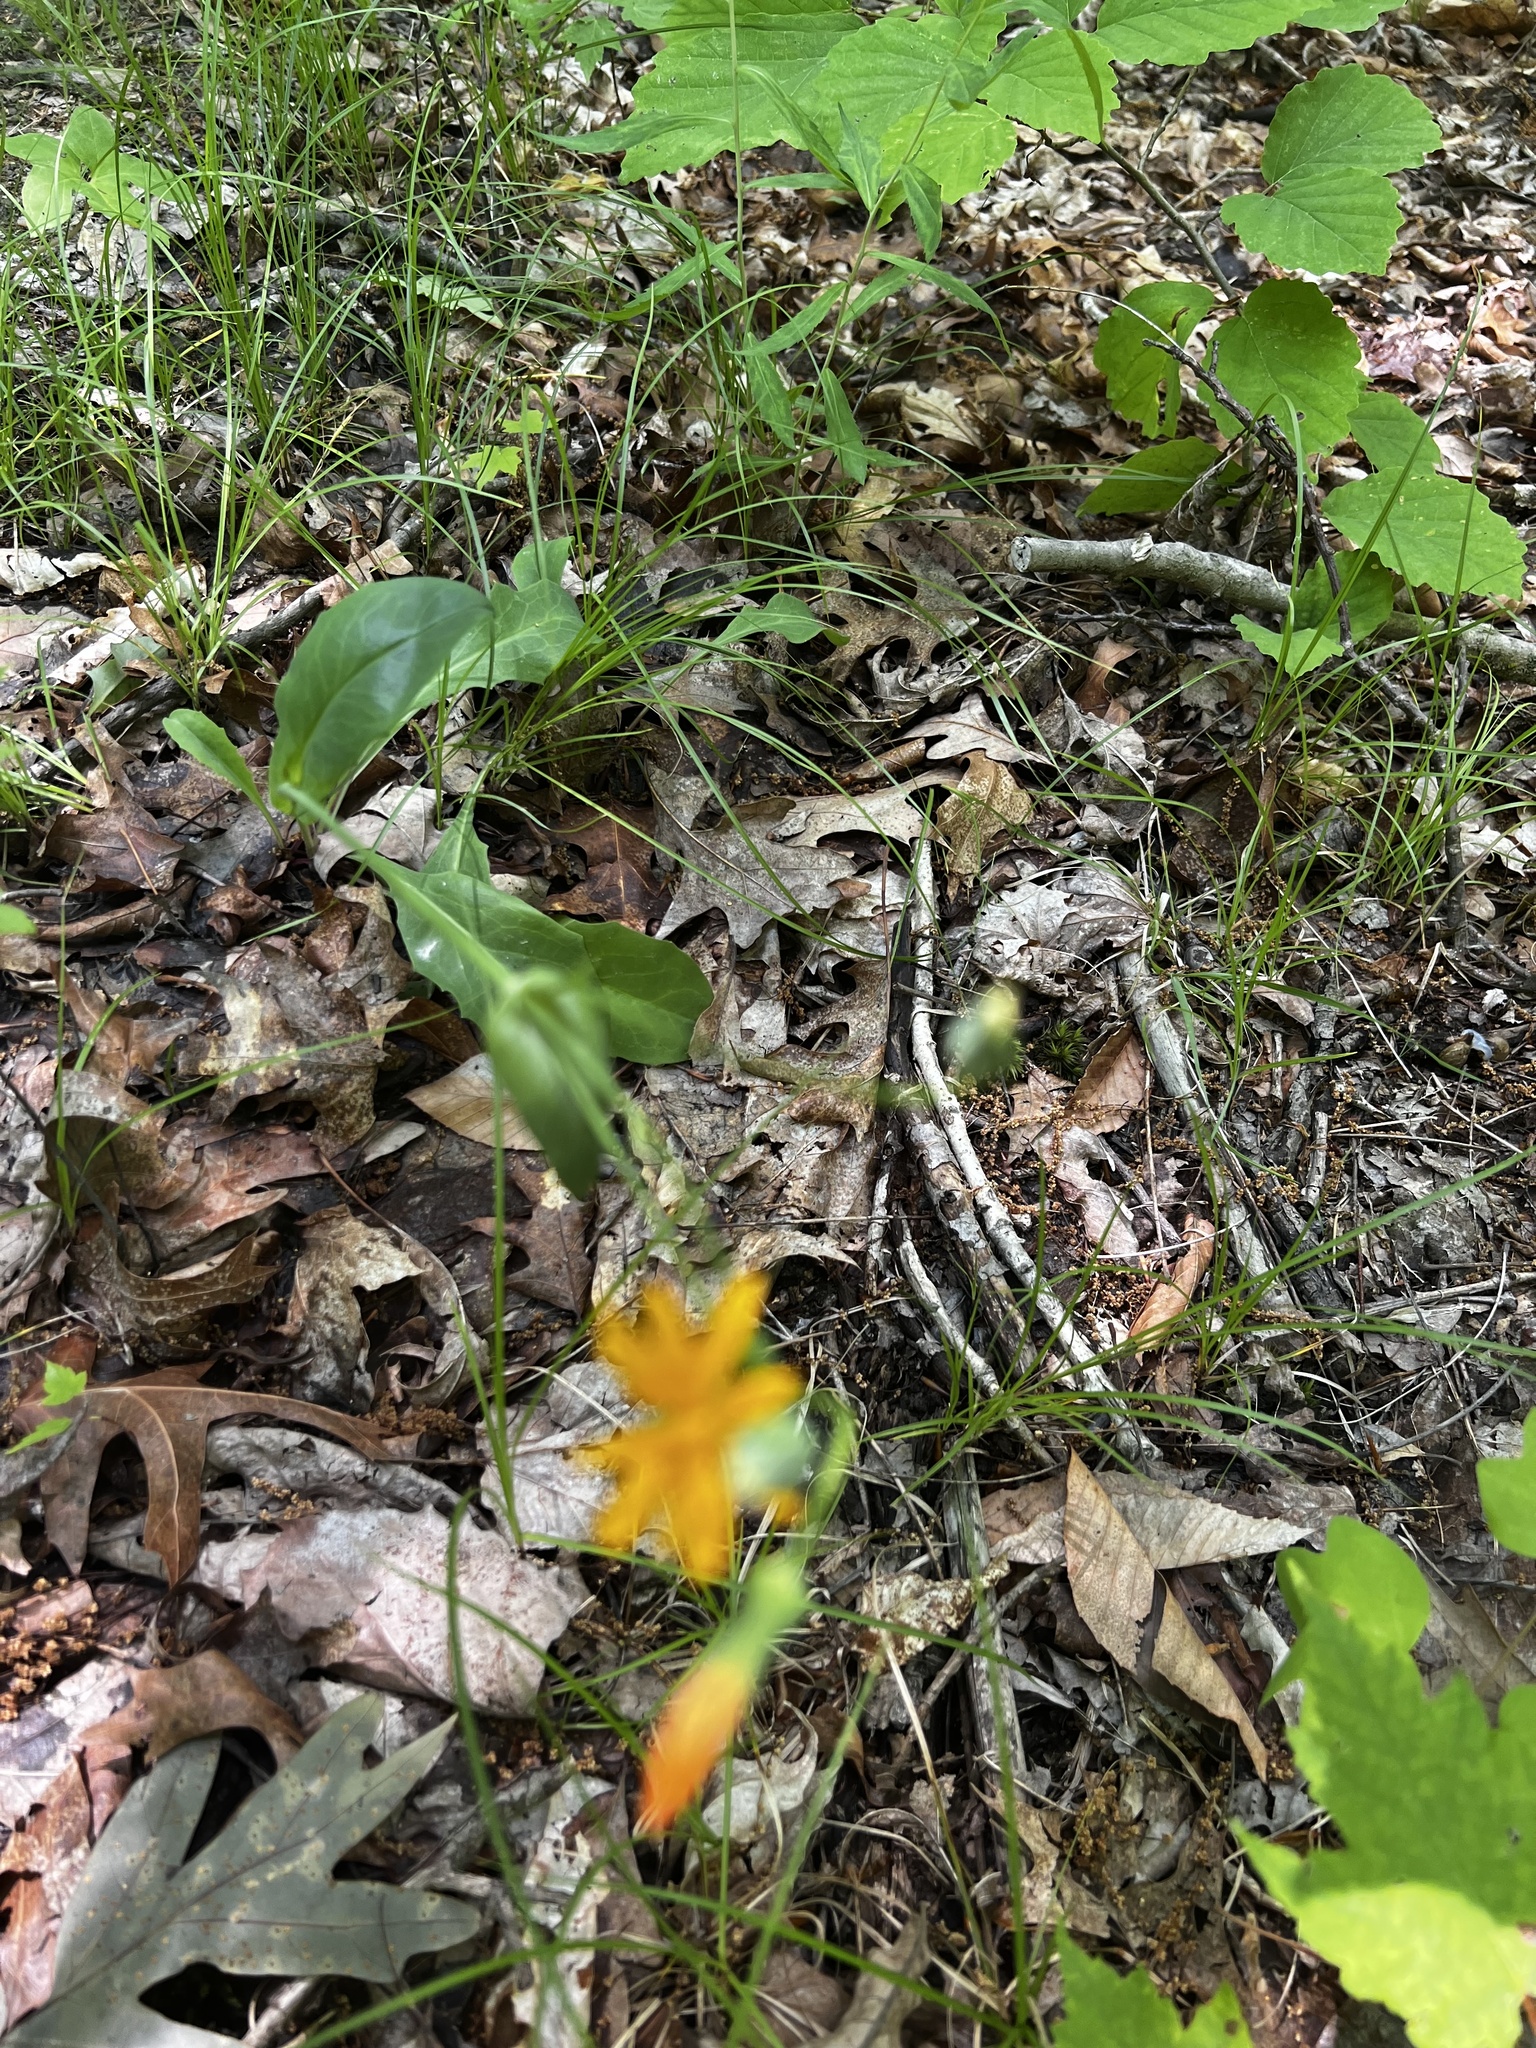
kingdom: Plantae
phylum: Tracheophyta
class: Magnoliopsida
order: Asterales
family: Asteraceae
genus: Krigia
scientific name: Krigia biflora
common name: Orange dwarf-dandelion
